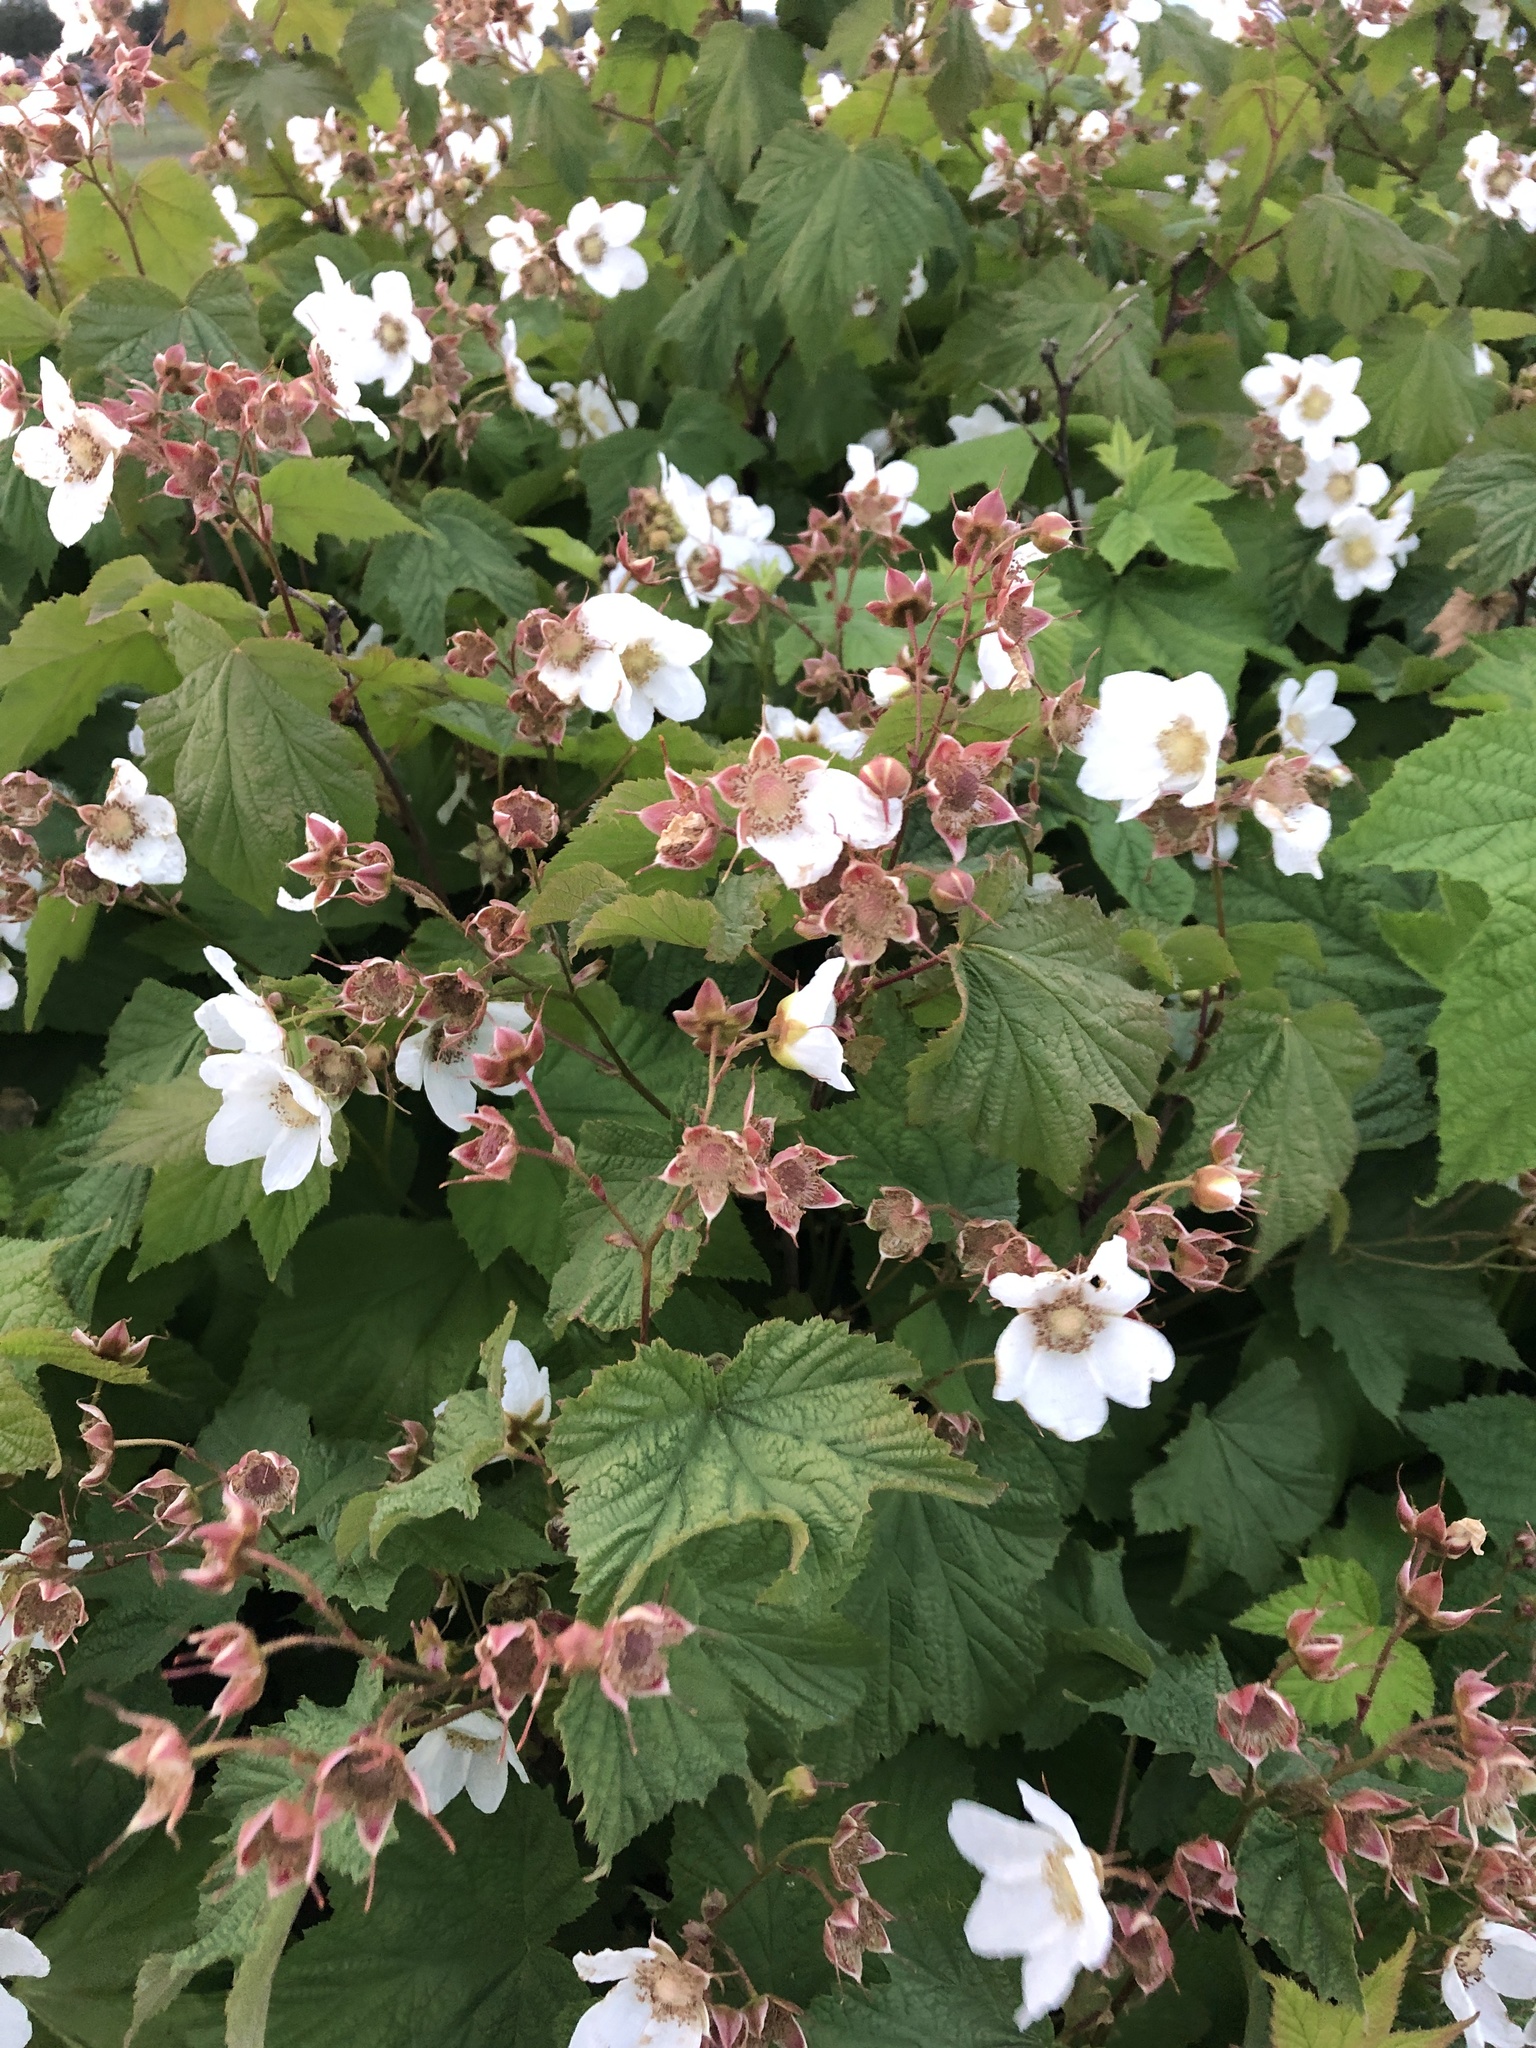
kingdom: Plantae
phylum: Tracheophyta
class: Magnoliopsida
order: Rosales
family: Rosaceae
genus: Rubus
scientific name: Rubus parviflorus
